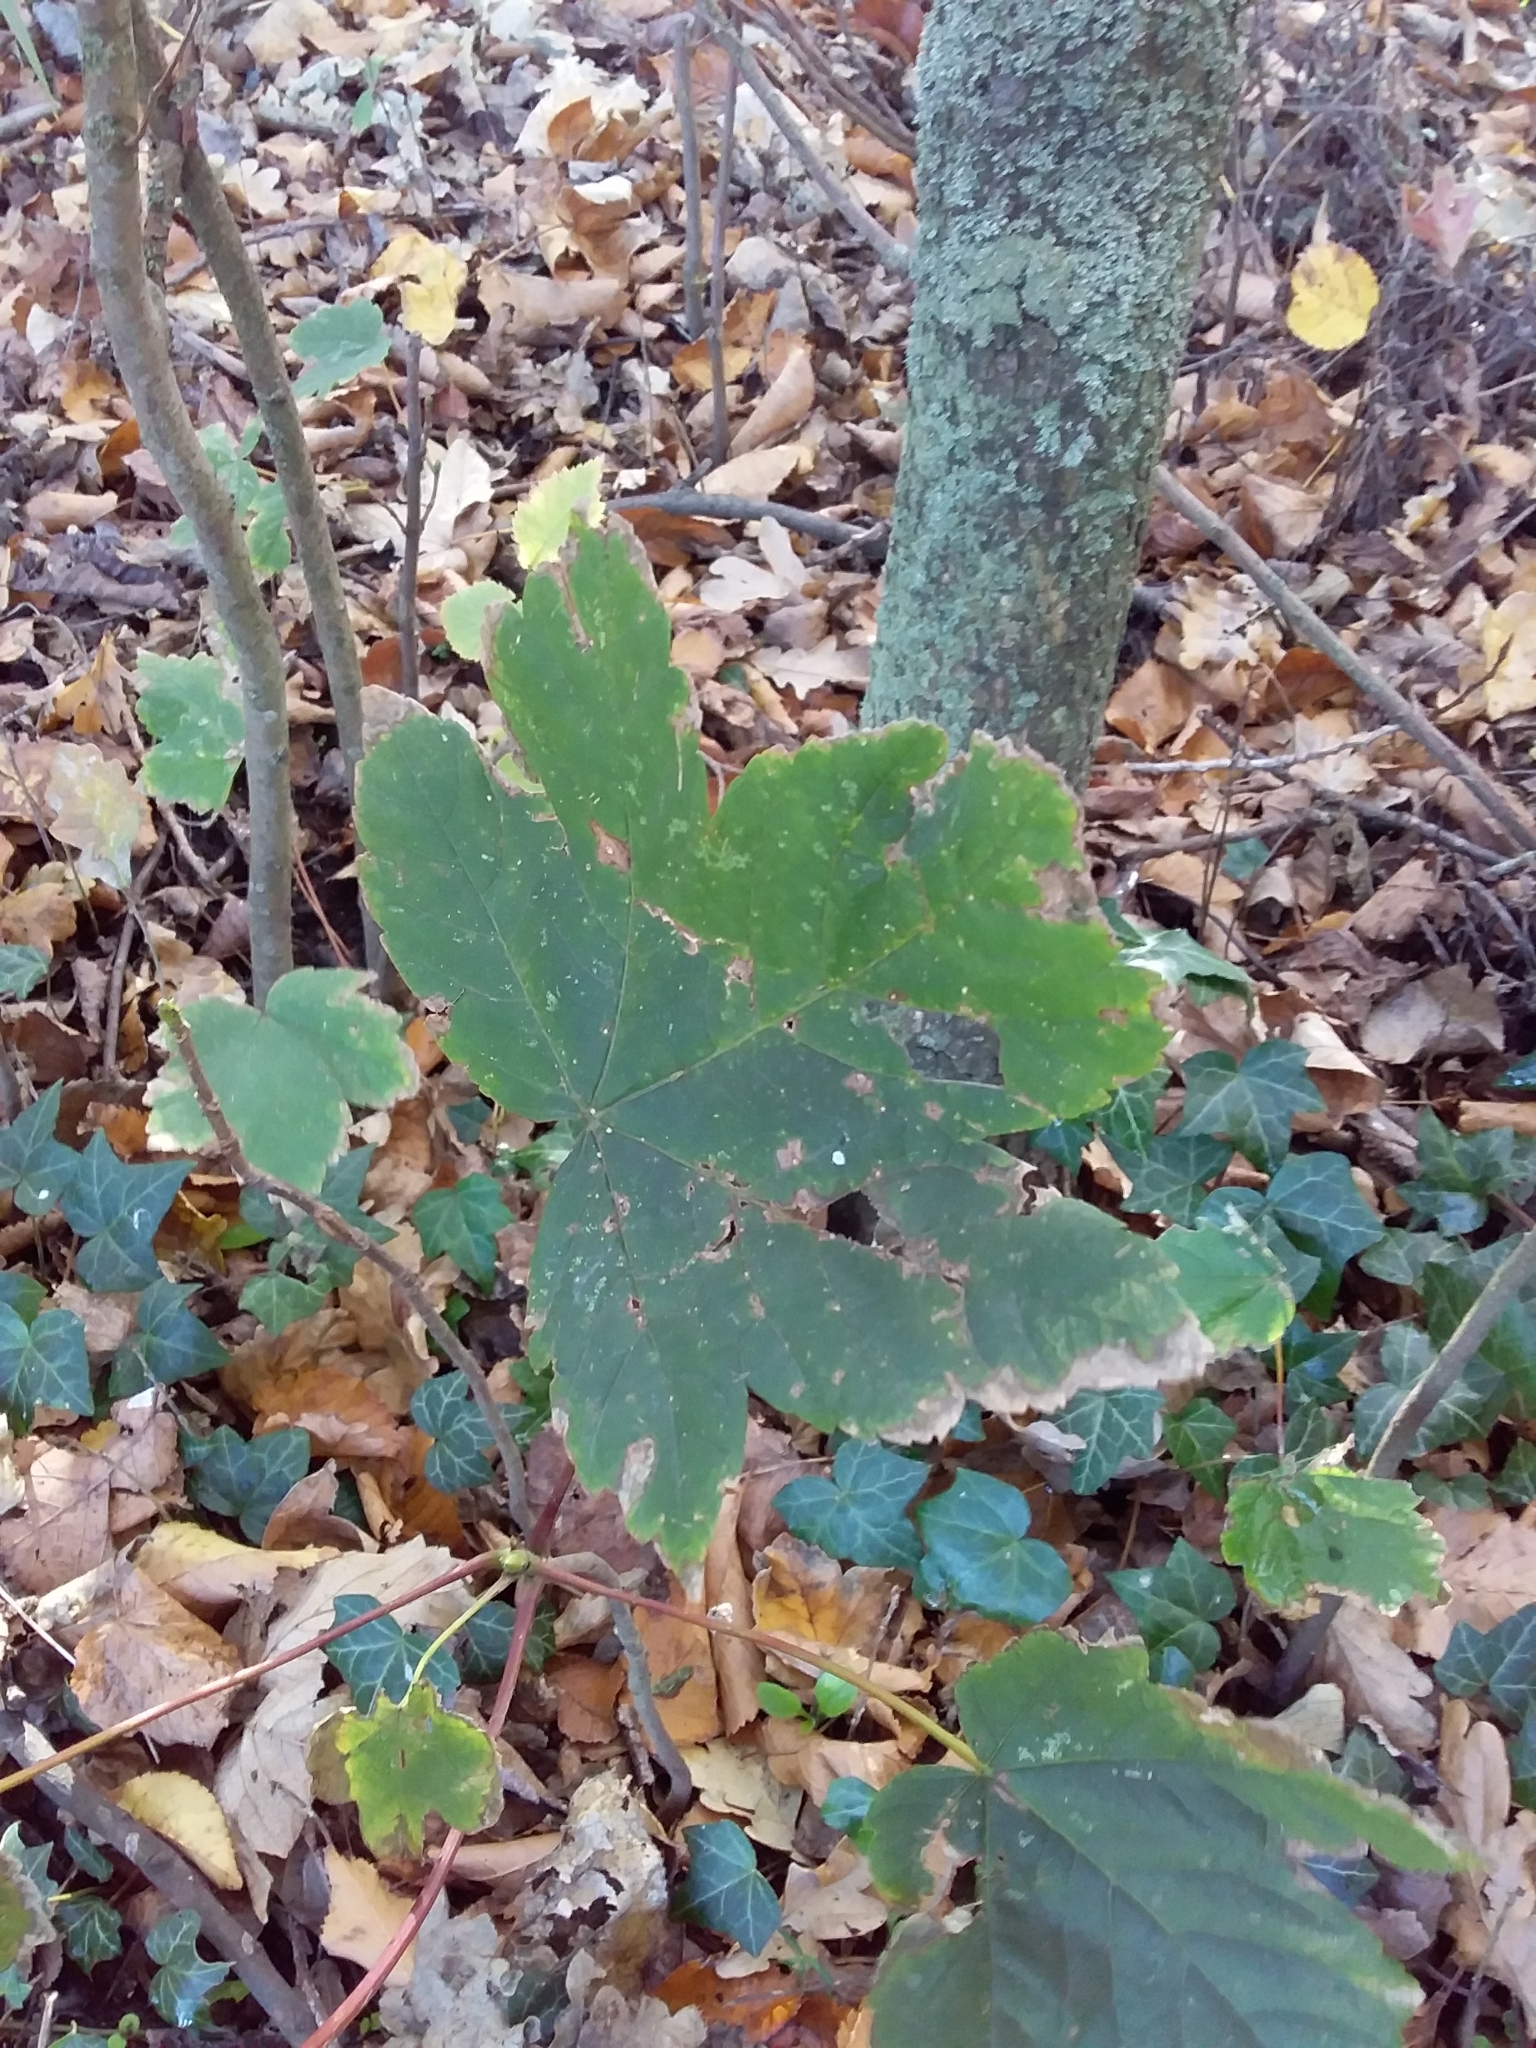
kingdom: Plantae
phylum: Tracheophyta
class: Magnoliopsida
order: Sapindales
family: Sapindaceae
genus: Acer
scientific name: Acer pseudoplatanus
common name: Sycamore
